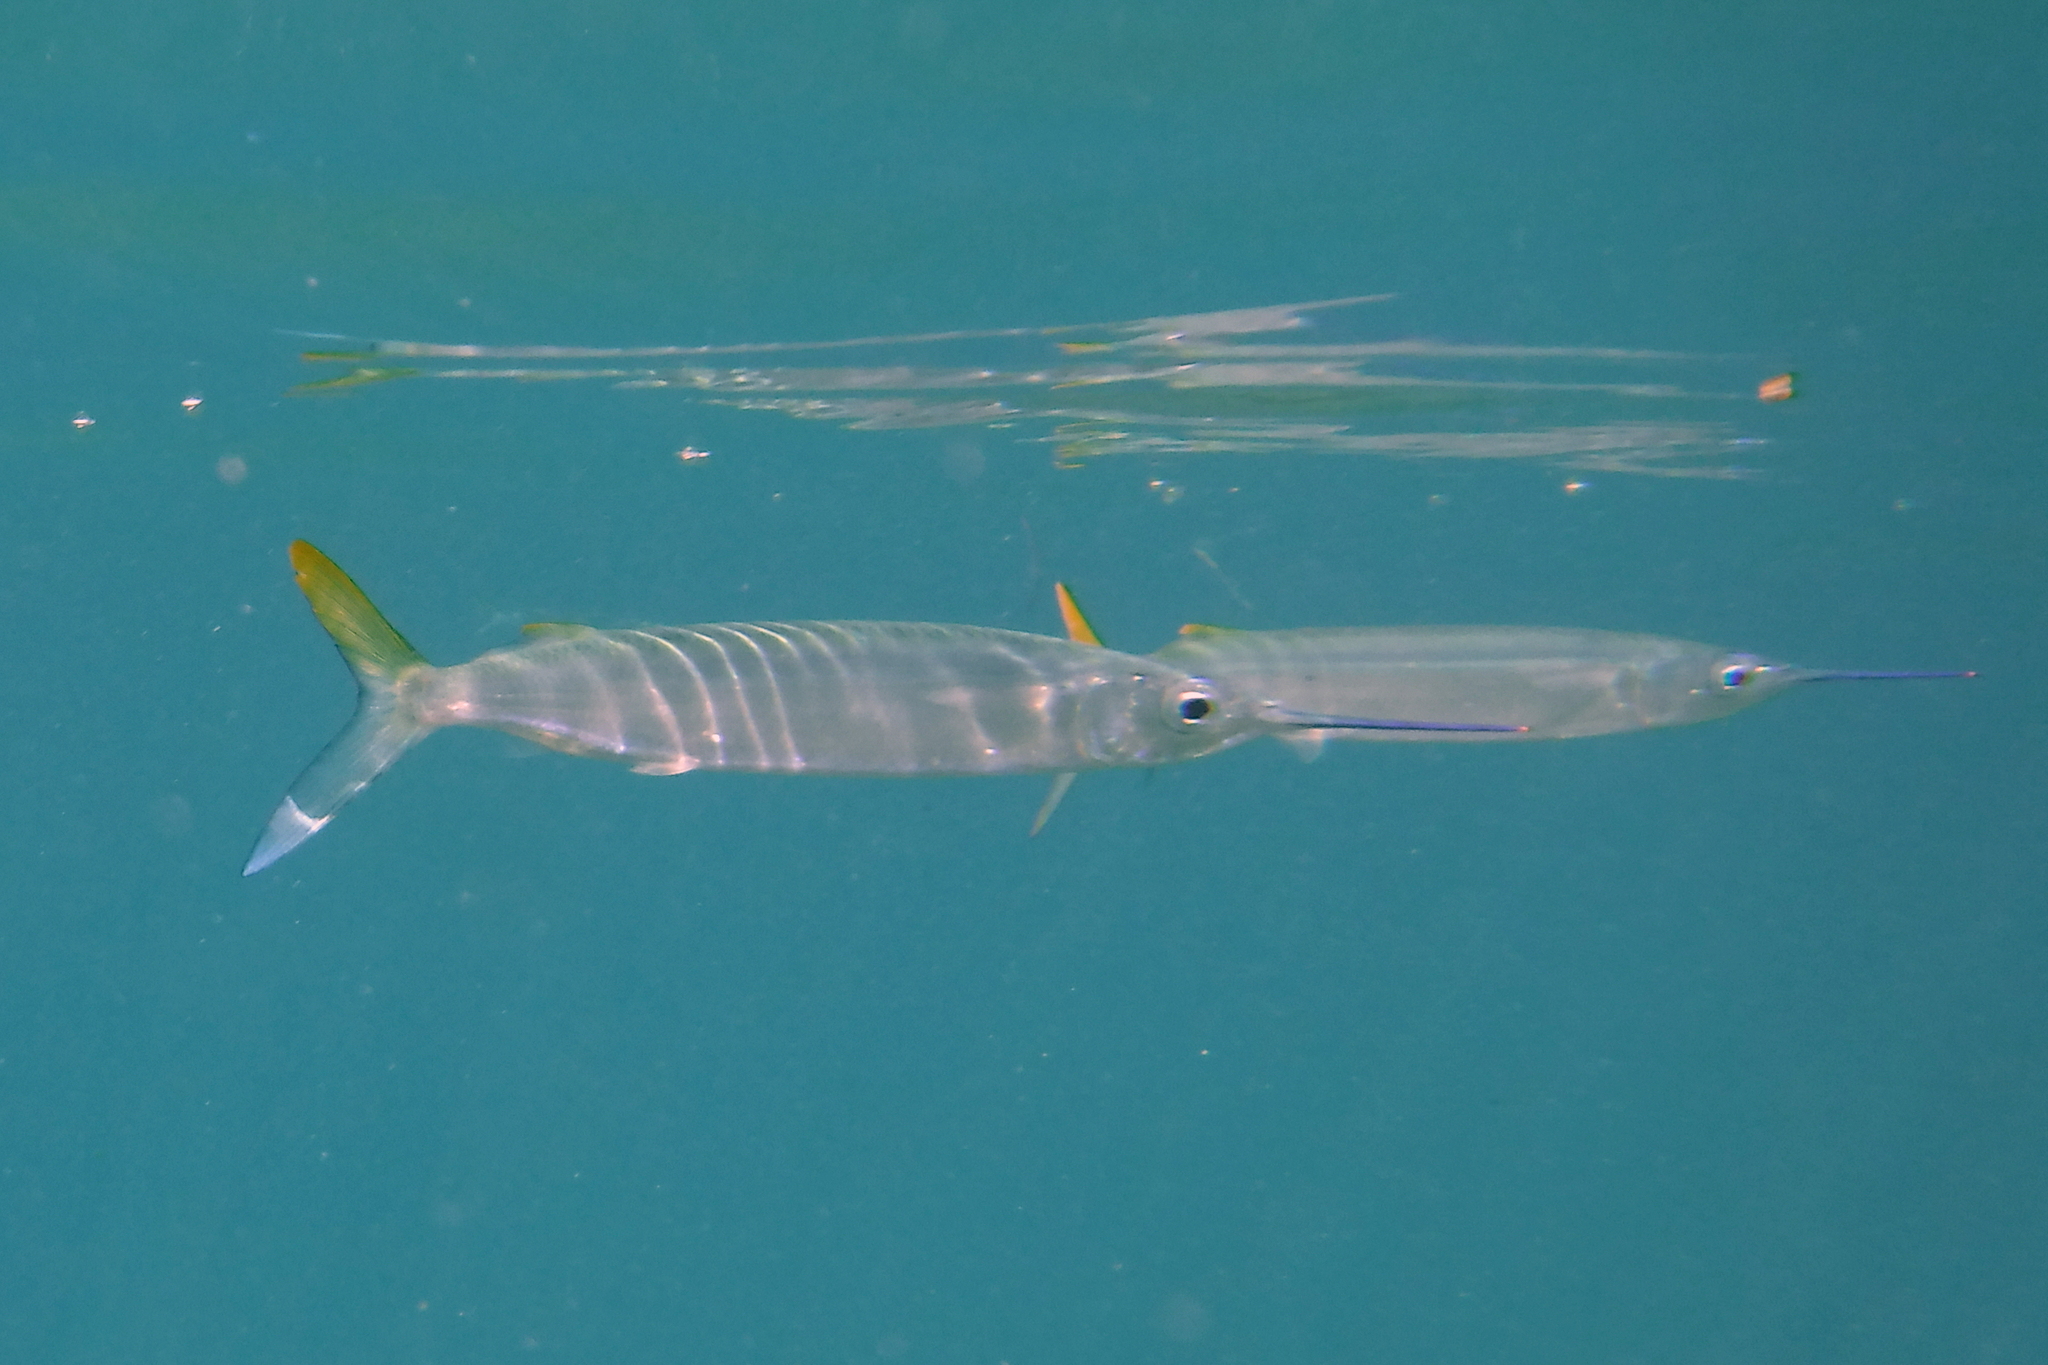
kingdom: Animalia
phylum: Chordata
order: Beloniformes
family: Hemiramphidae
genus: Hemiramphus
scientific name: Hemiramphus brasiliensis
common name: Ballyhoo
